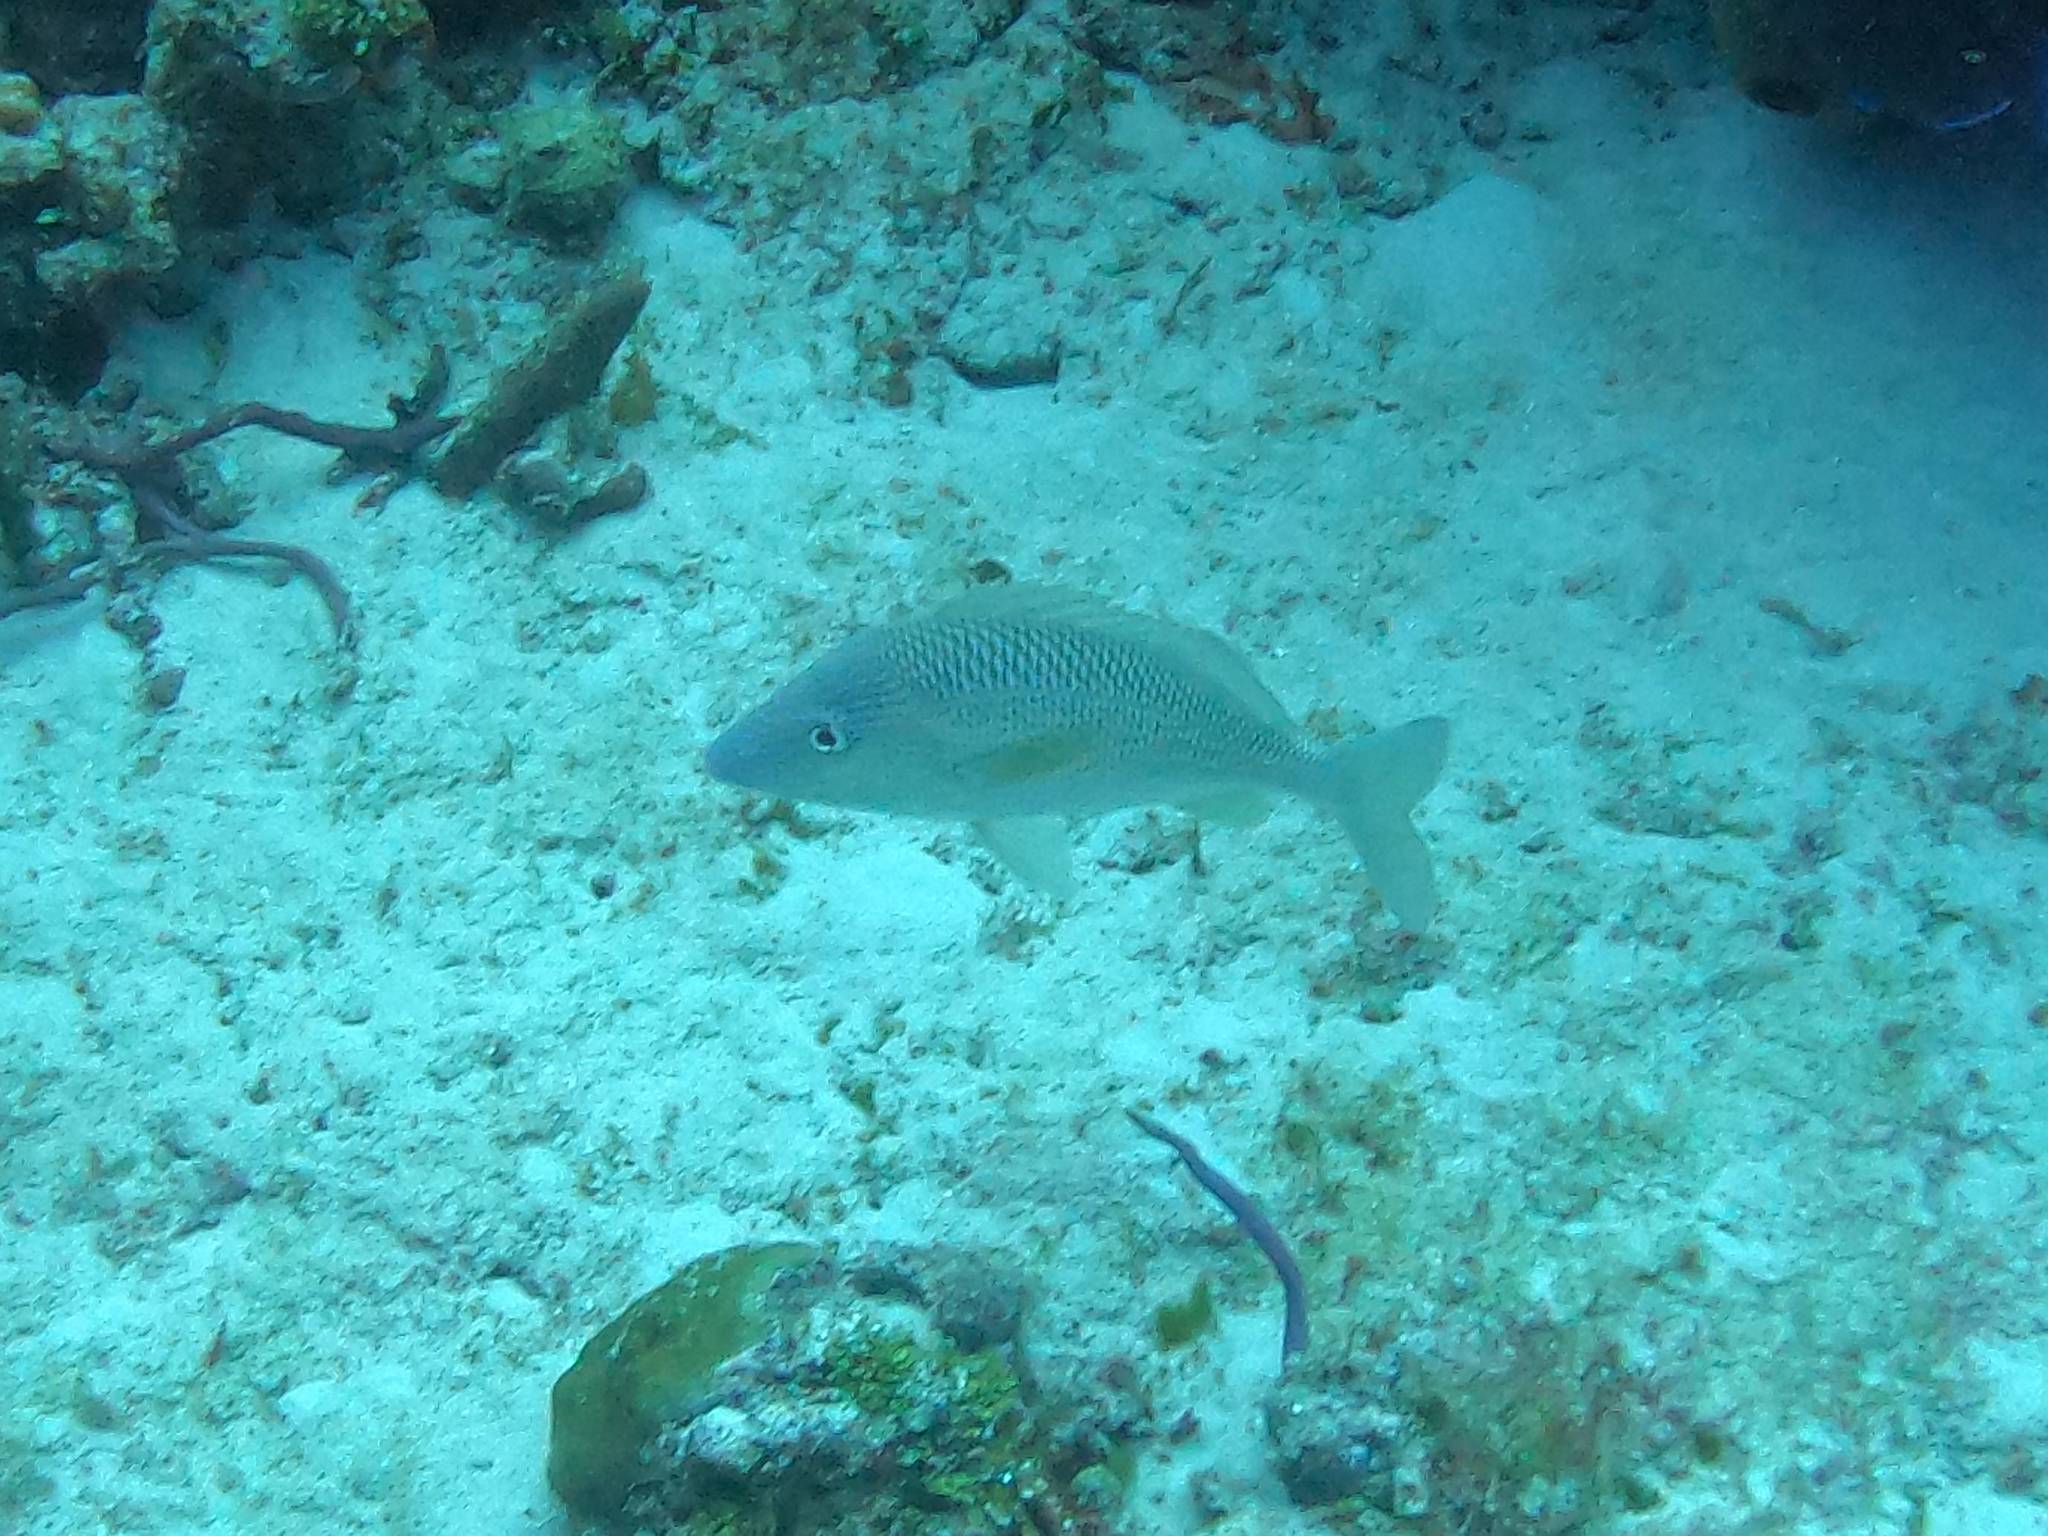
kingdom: Animalia
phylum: Chordata
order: Perciformes
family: Haemulidae
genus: Haemulon
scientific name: Haemulon plumierii
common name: White grunt
